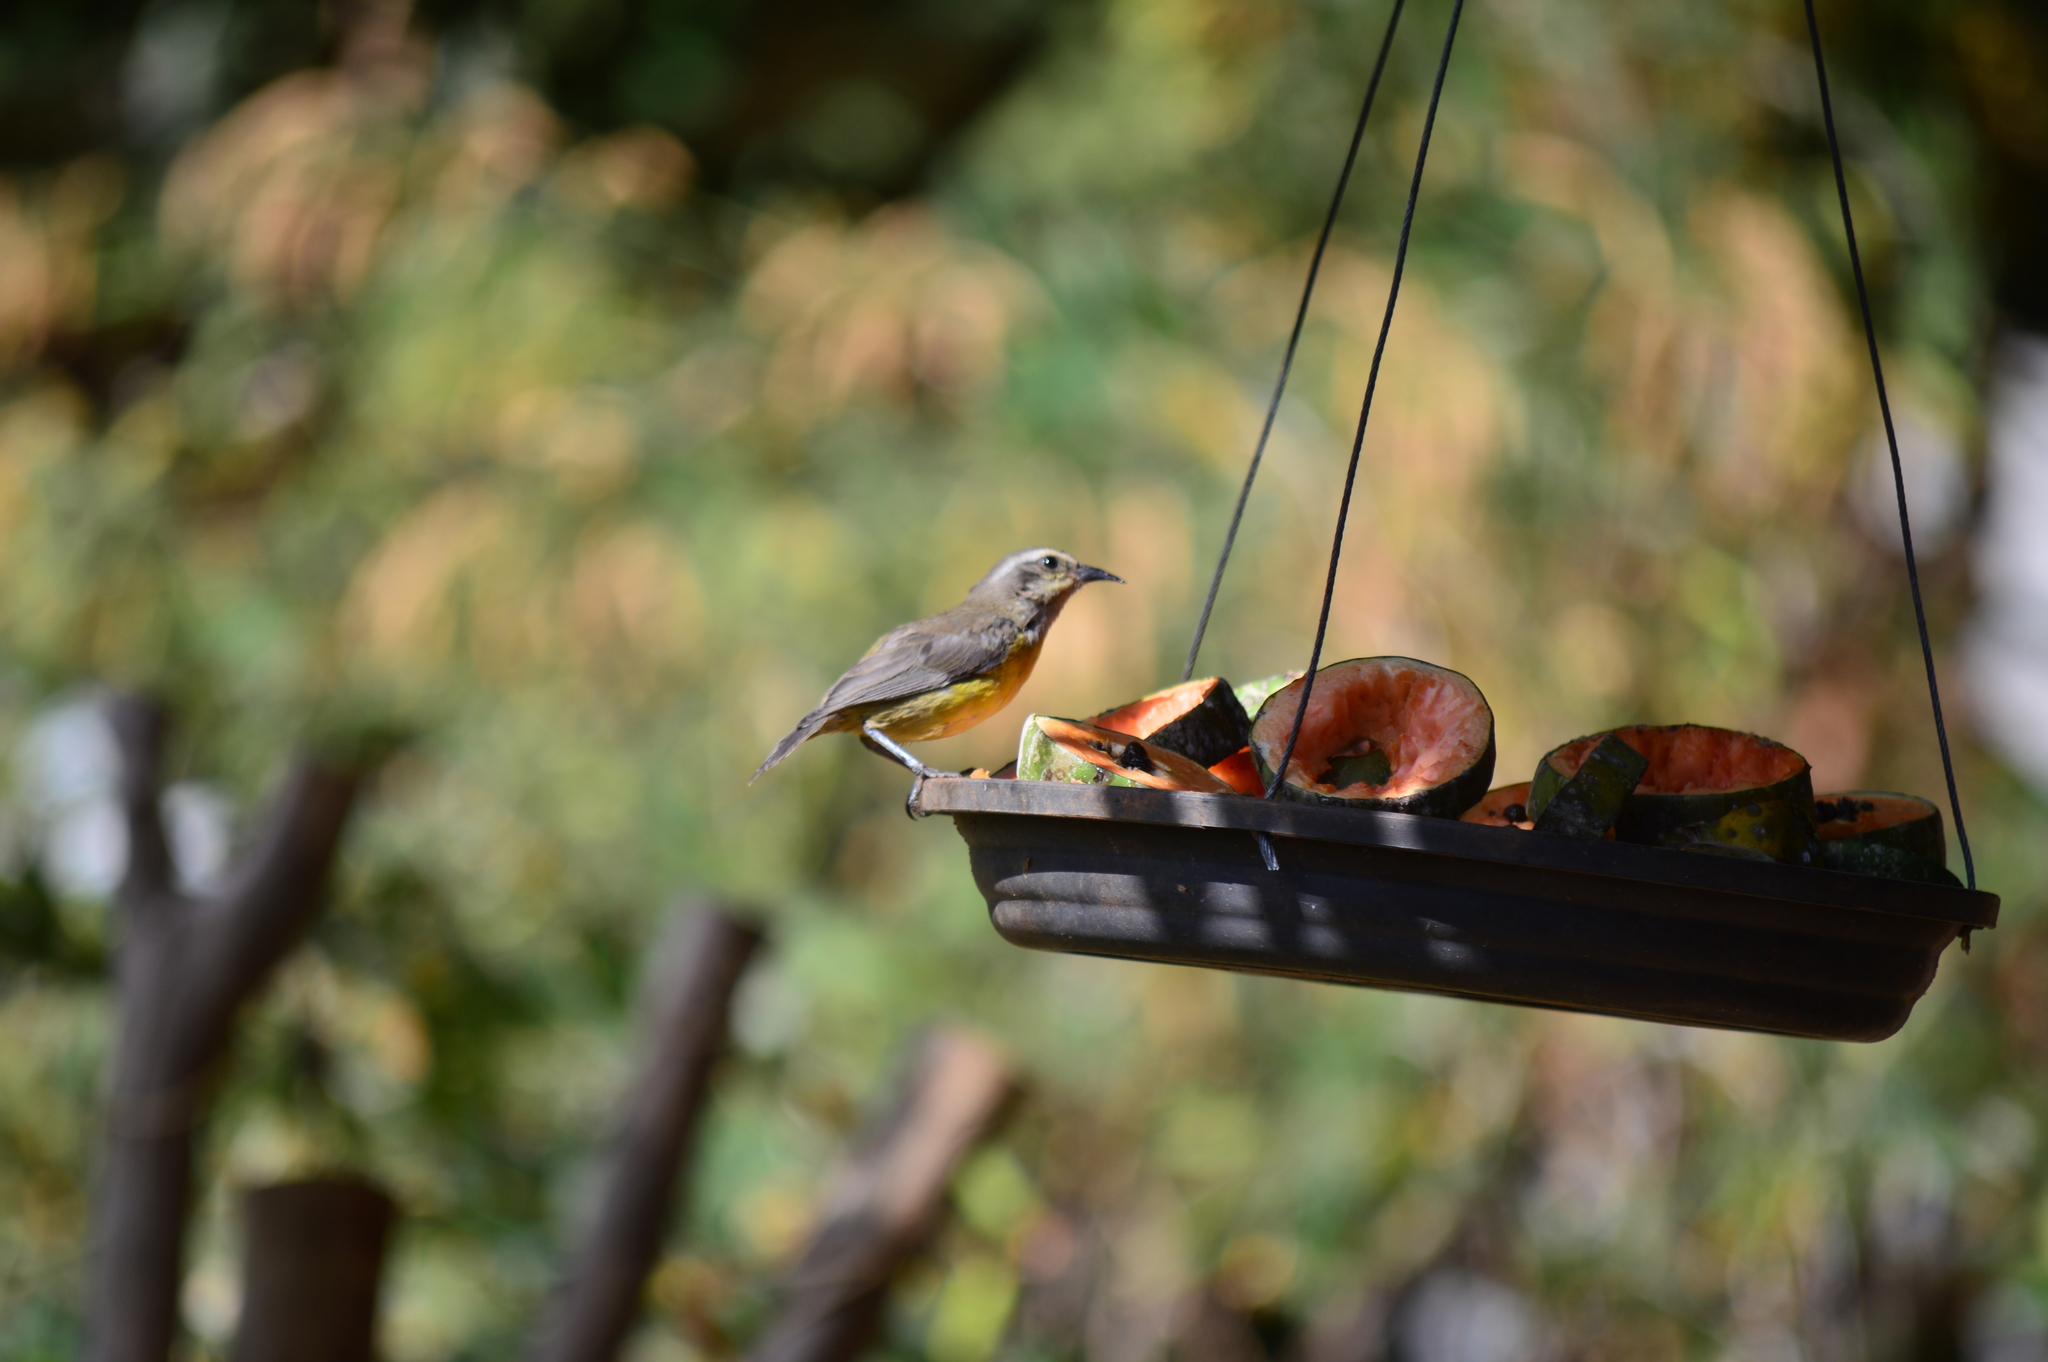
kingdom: Animalia
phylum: Chordata
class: Aves
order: Passeriformes
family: Thraupidae
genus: Coereba
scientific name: Coereba flaveola
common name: Bananaquit
